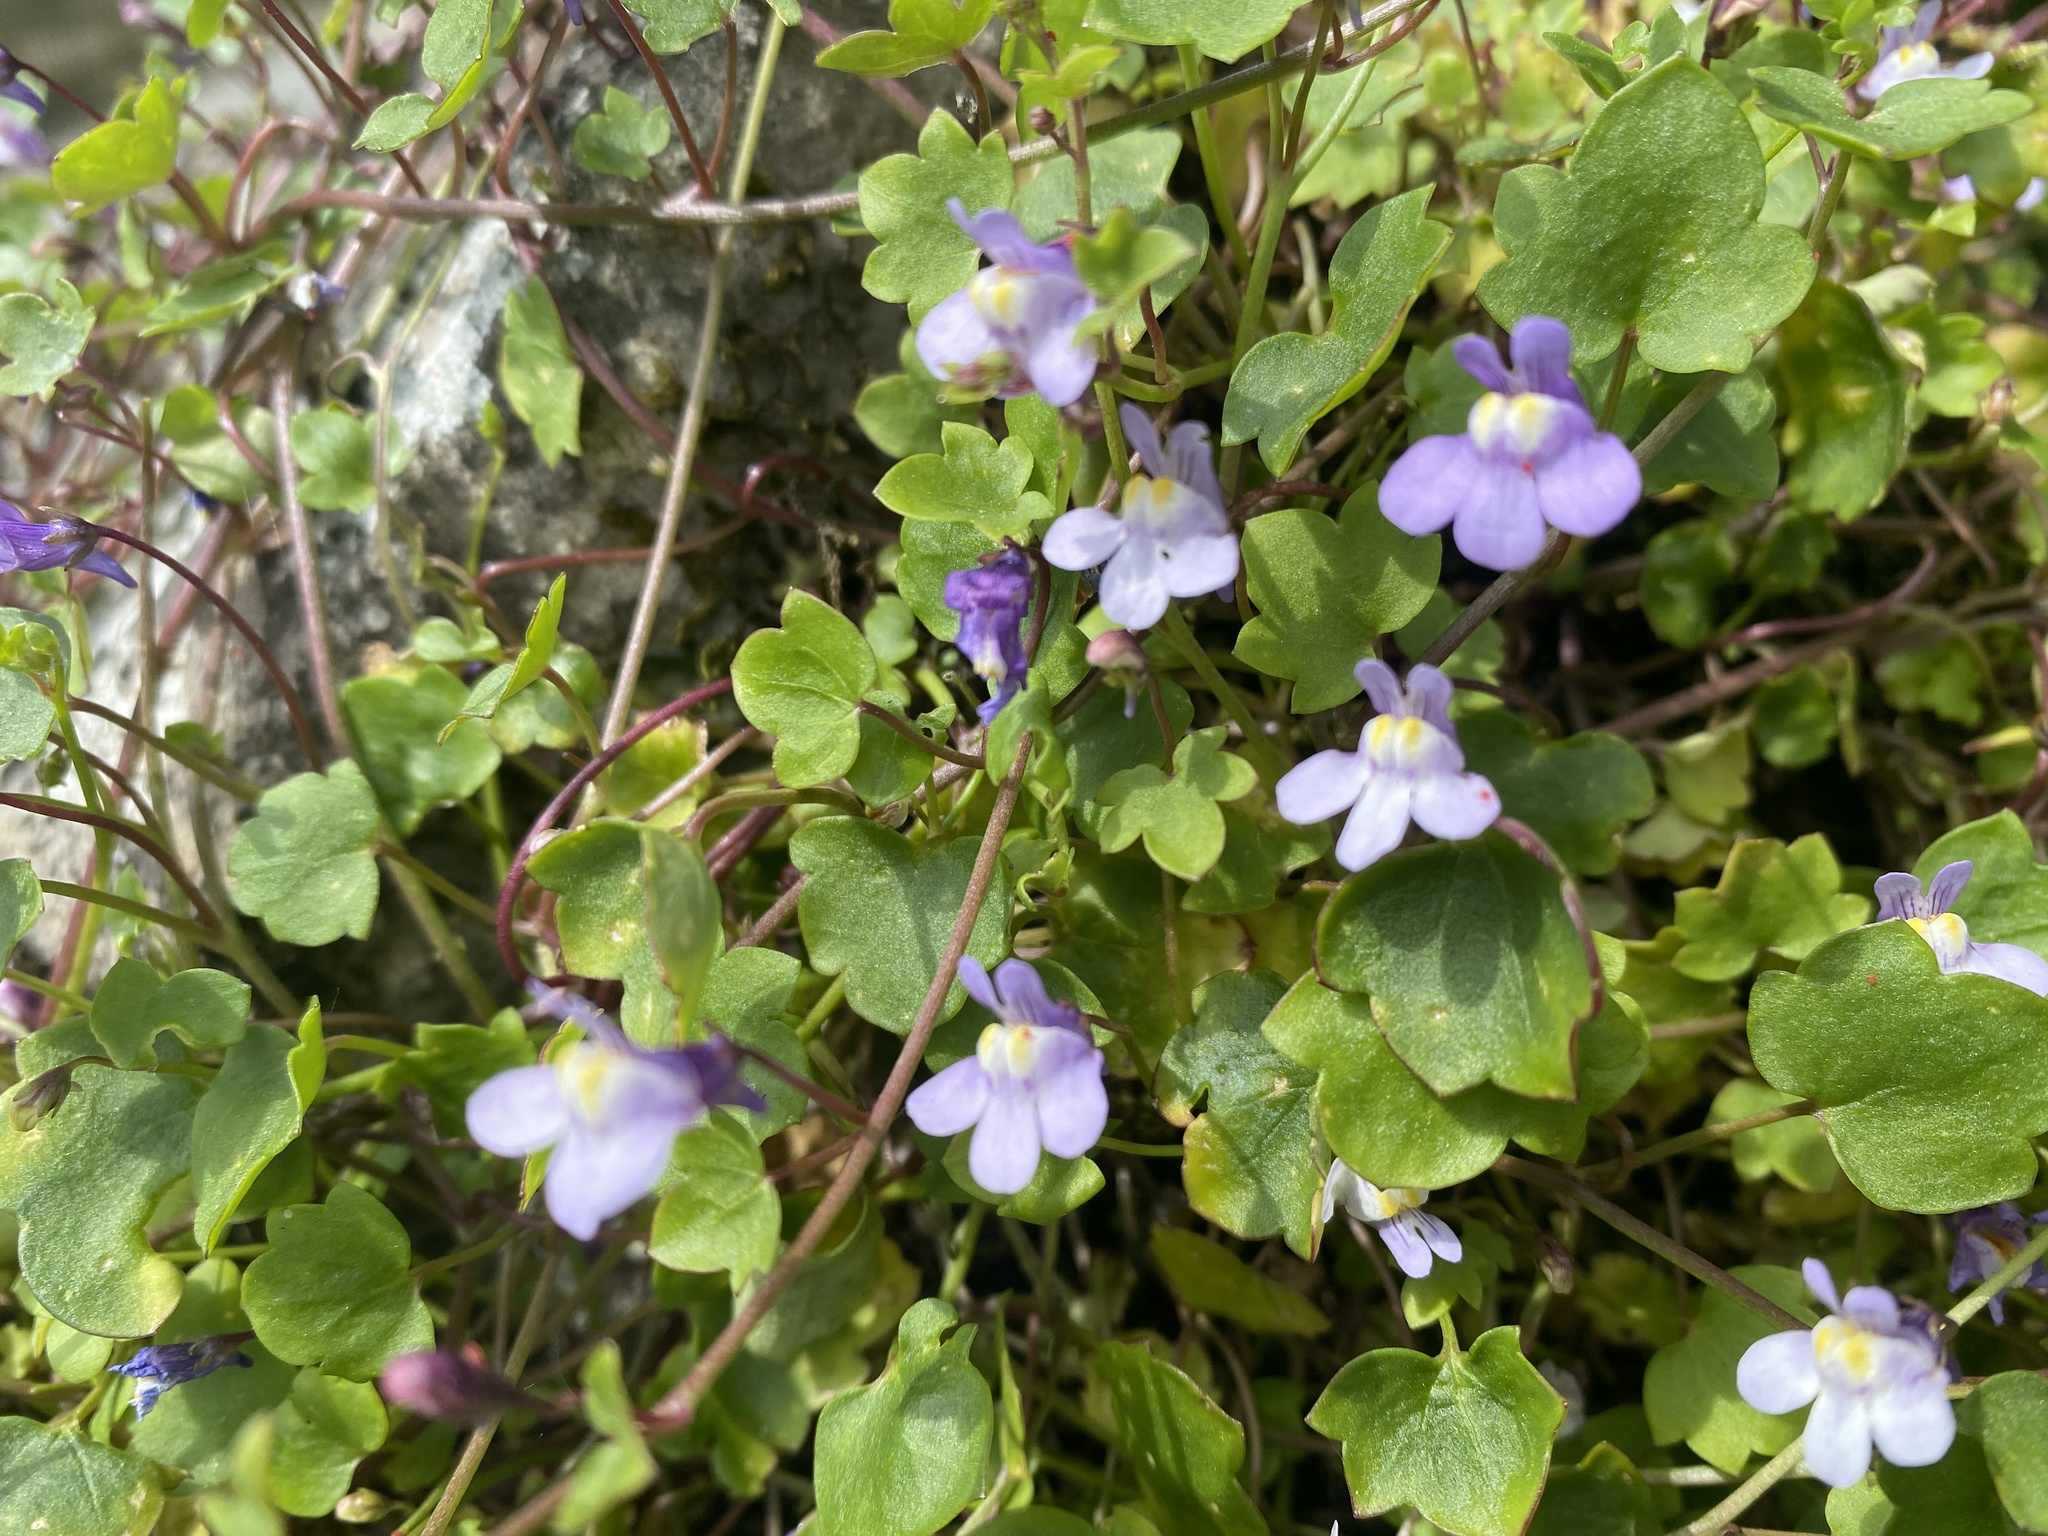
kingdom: Plantae
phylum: Tracheophyta
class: Magnoliopsida
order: Lamiales
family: Plantaginaceae
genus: Cymbalaria
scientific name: Cymbalaria muralis
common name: Ivy-leaved toadflax
